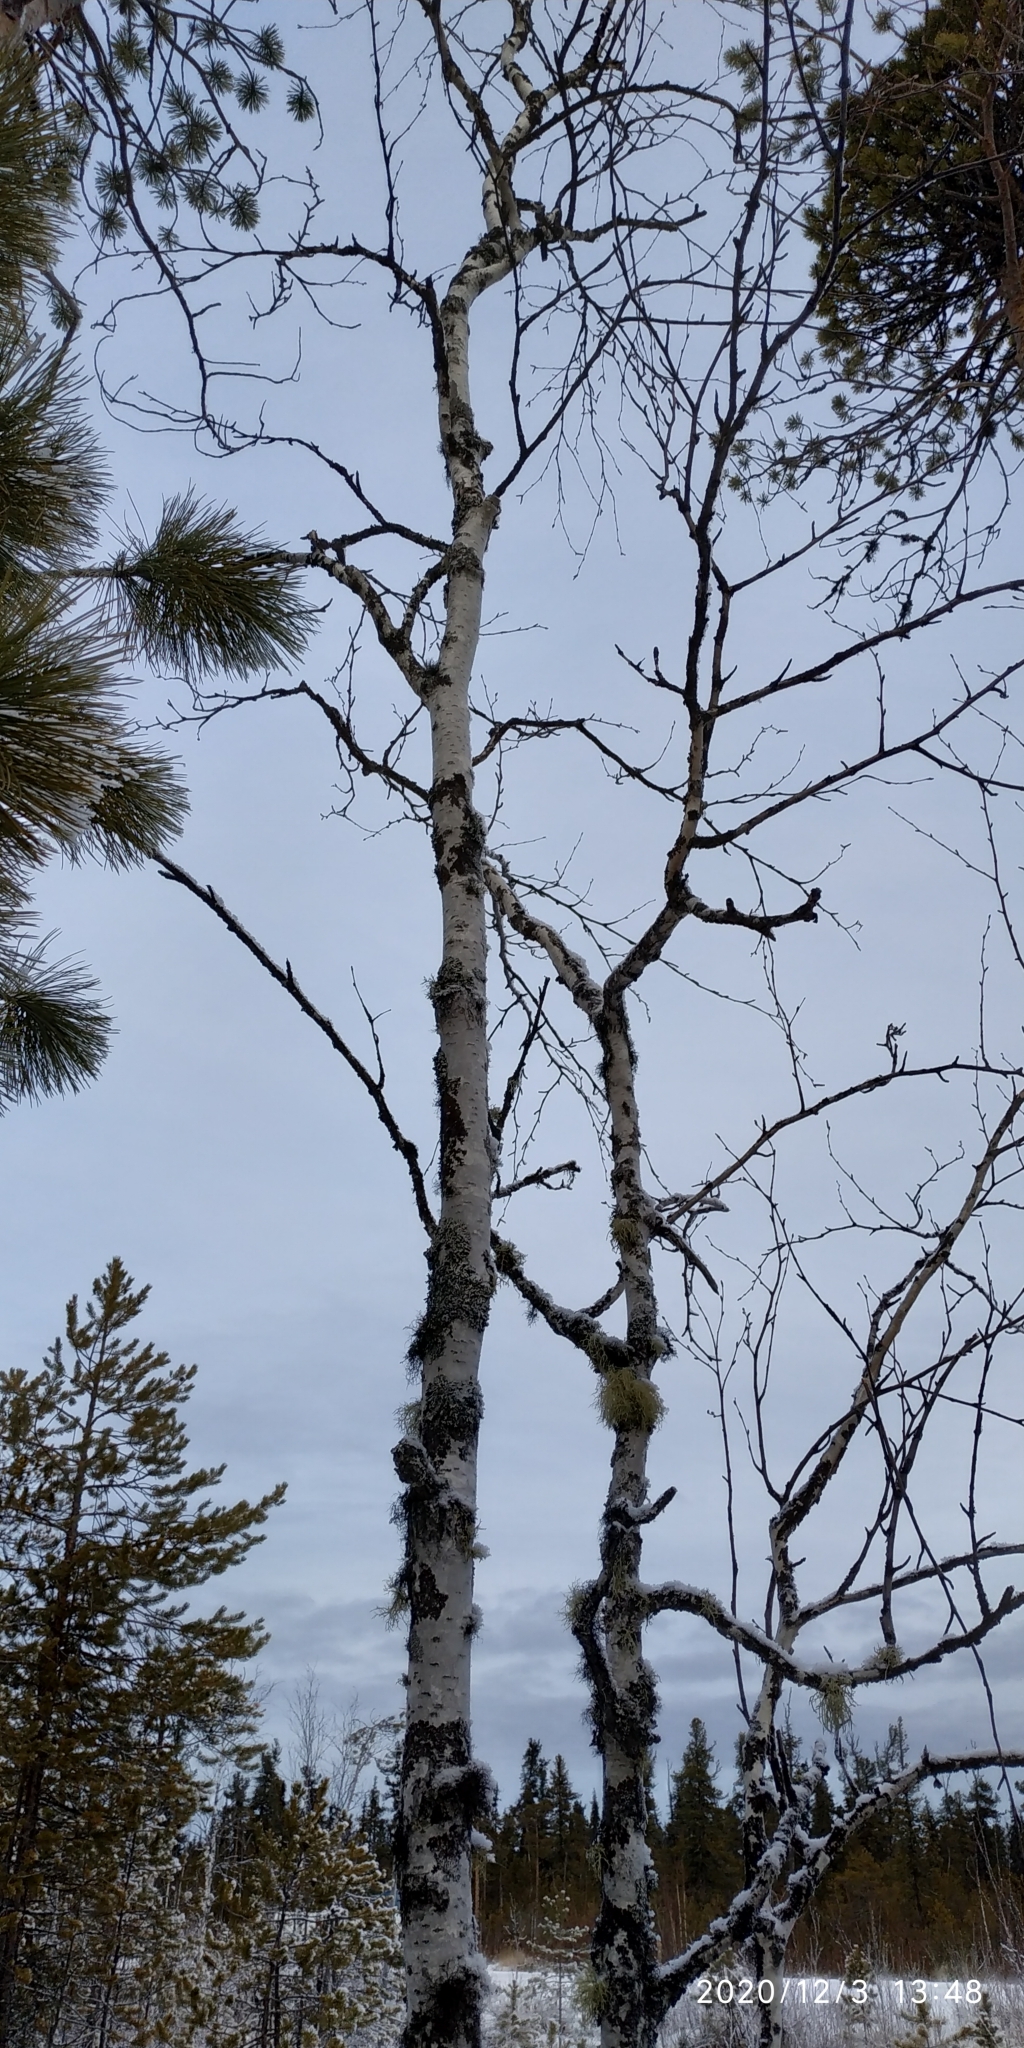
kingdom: Plantae
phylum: Tracheophyta
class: Magnoliopsida
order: Fagales
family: Betulaceae
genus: Betula
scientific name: Betula pubescens
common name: Downy birch
